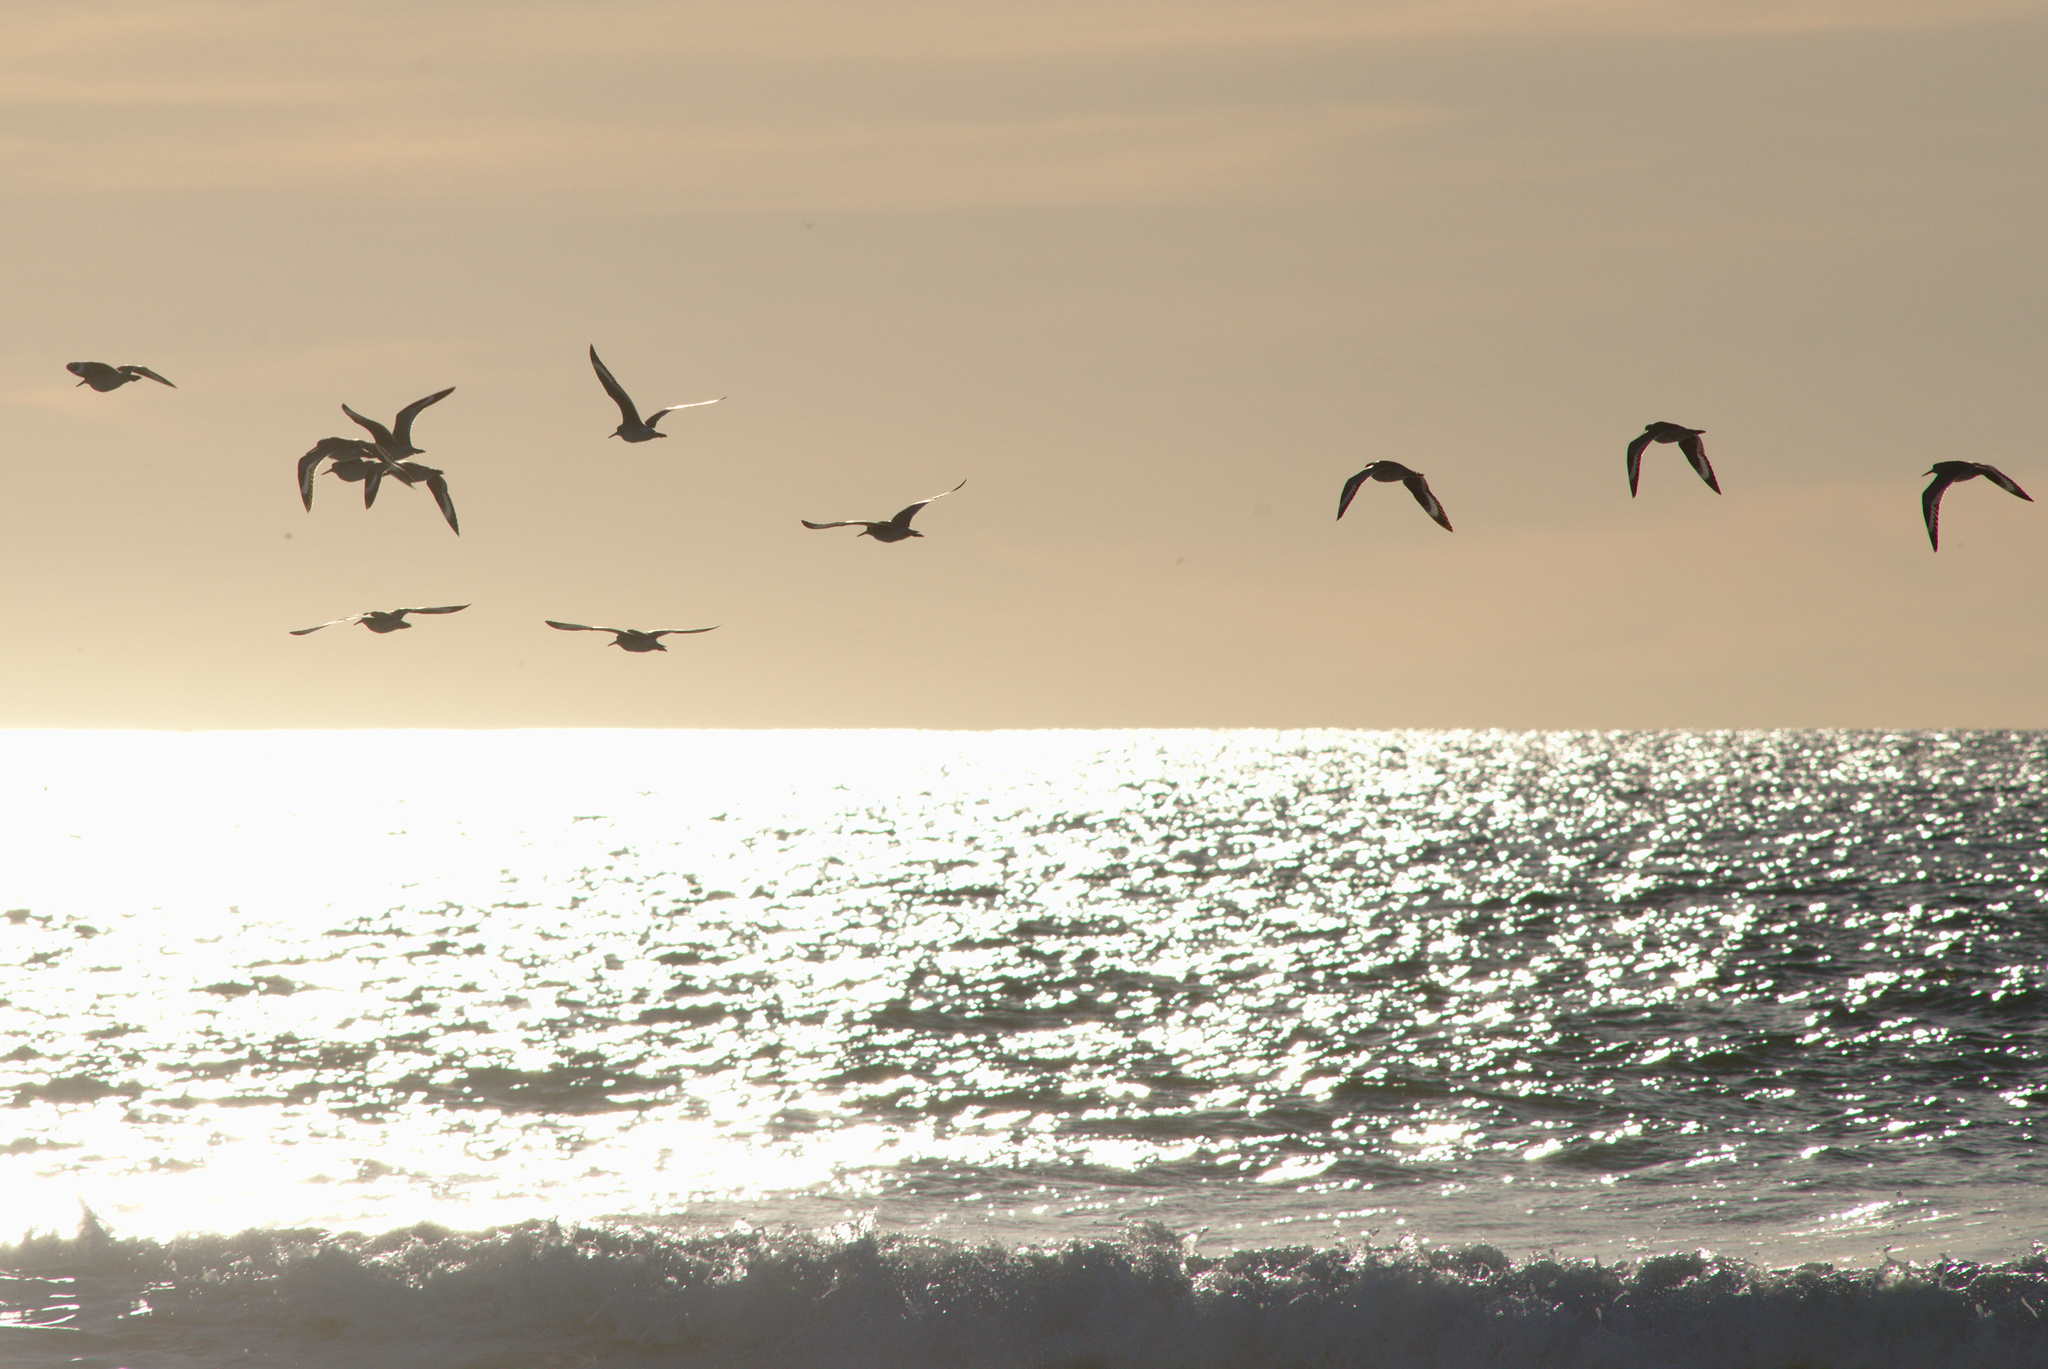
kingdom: Animalia
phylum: Chordata
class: Aves
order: Charadriiformes
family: Scolopacidae
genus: Tringa
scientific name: Tringa semipalmata
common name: Willet
